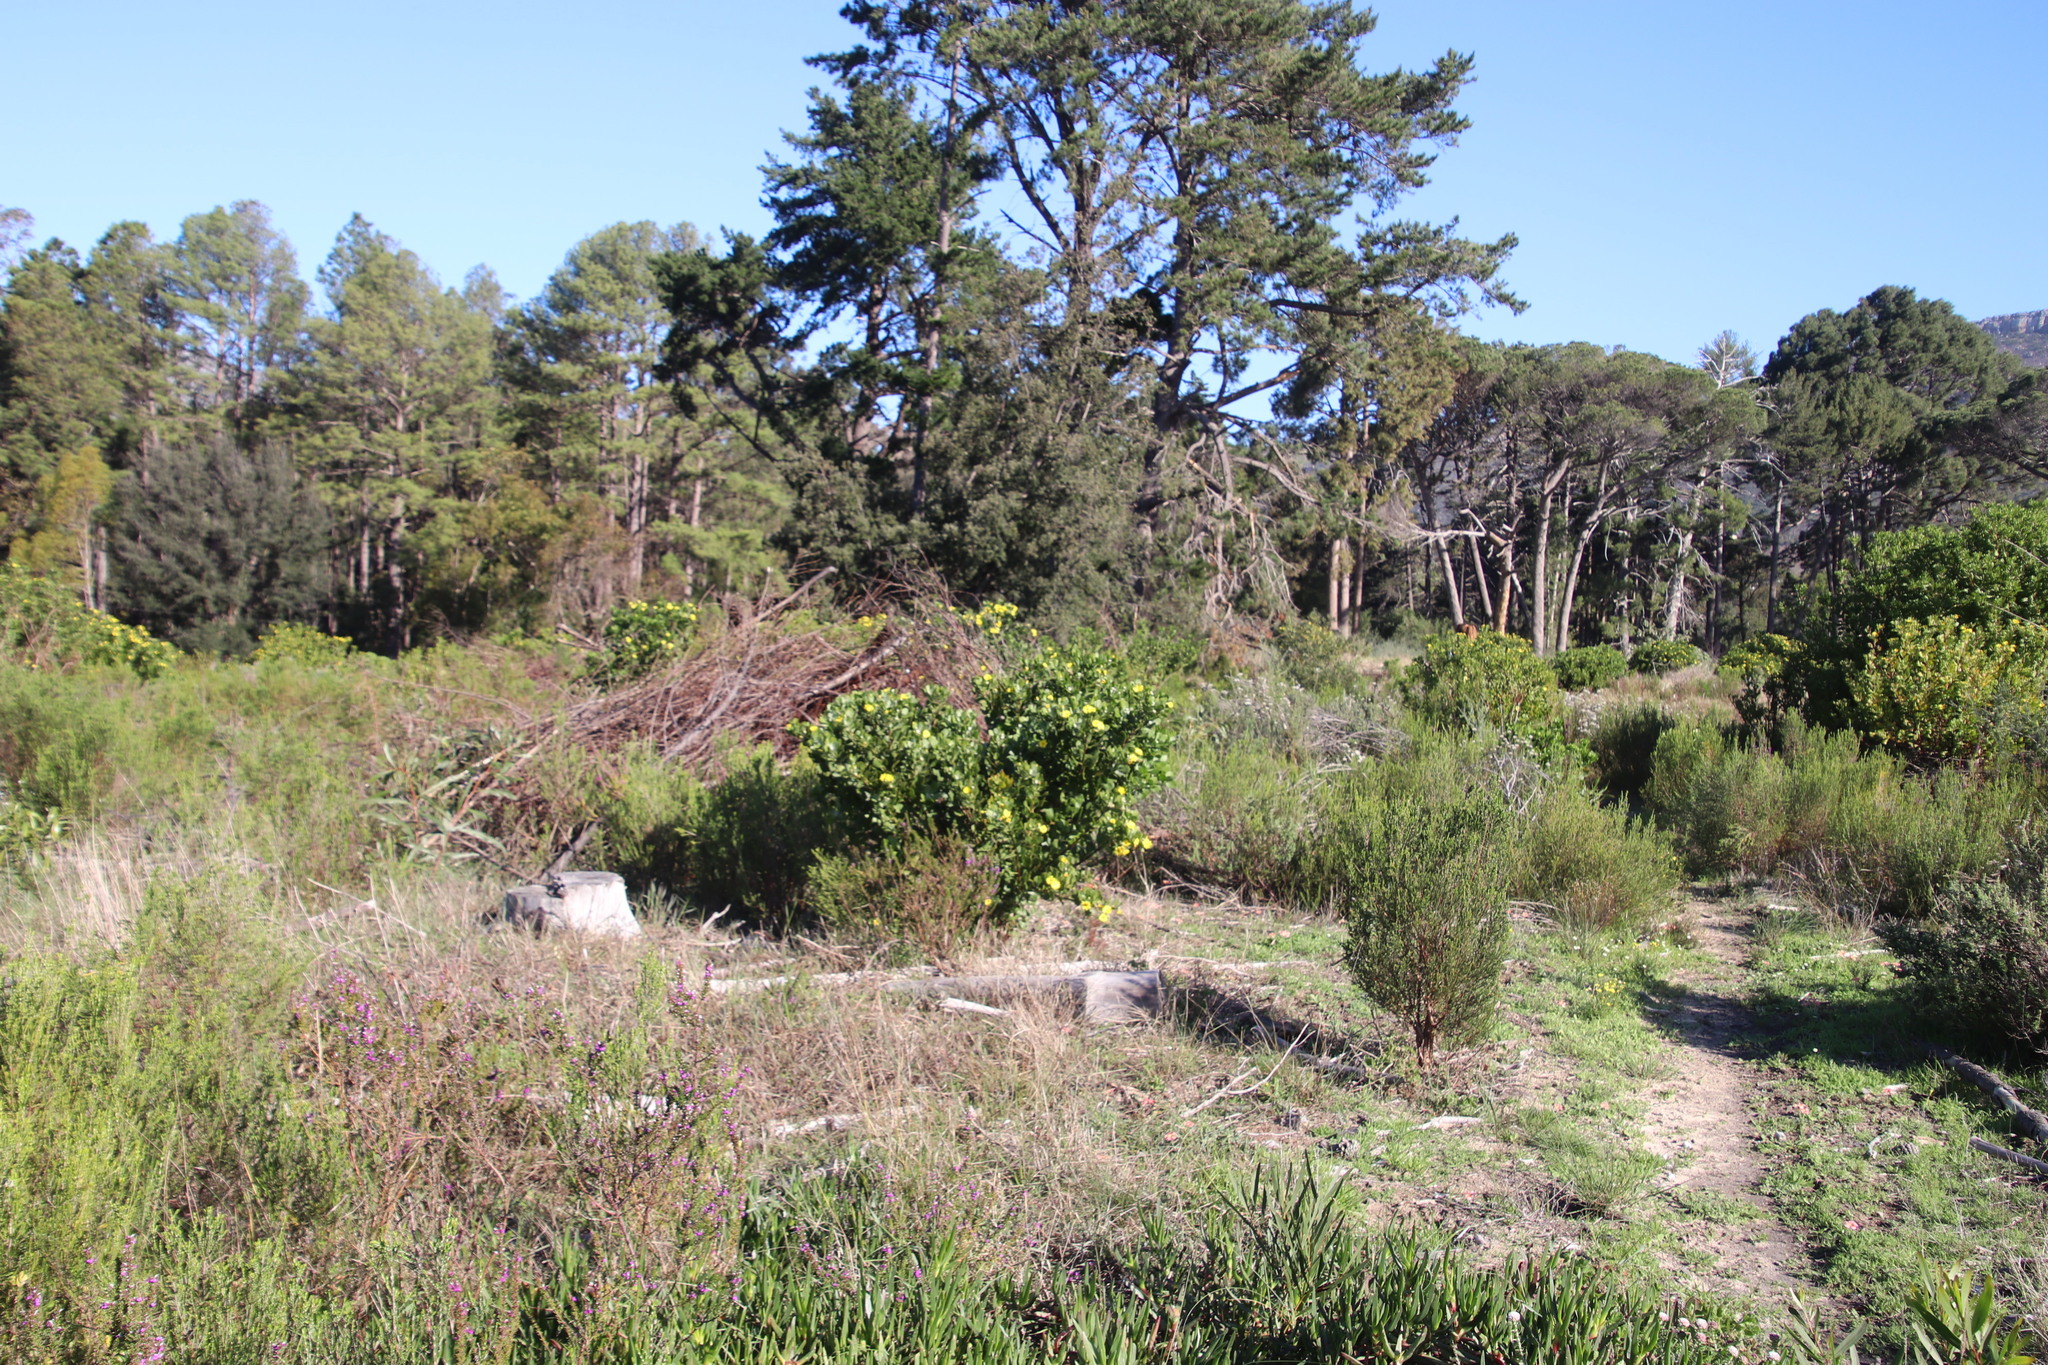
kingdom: Plantae
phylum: Tracheophyta
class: Magnoliopsida
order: Asterales
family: Asteraceae
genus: Osteospermum
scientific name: Osteospermum moniliferum
